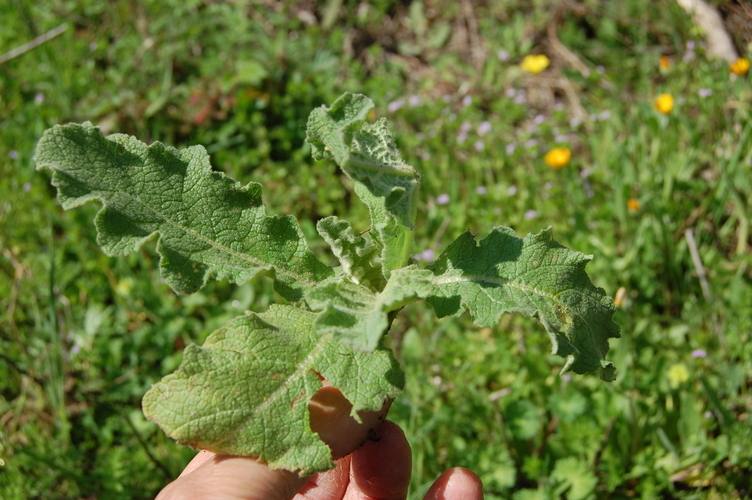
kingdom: Plantae
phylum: Tracheophyta
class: Magnoliopsida
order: Lamiales
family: Scrophulariaceae
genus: Verbascum
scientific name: Verbascum sinuatum
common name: Wavyleaf mullein
